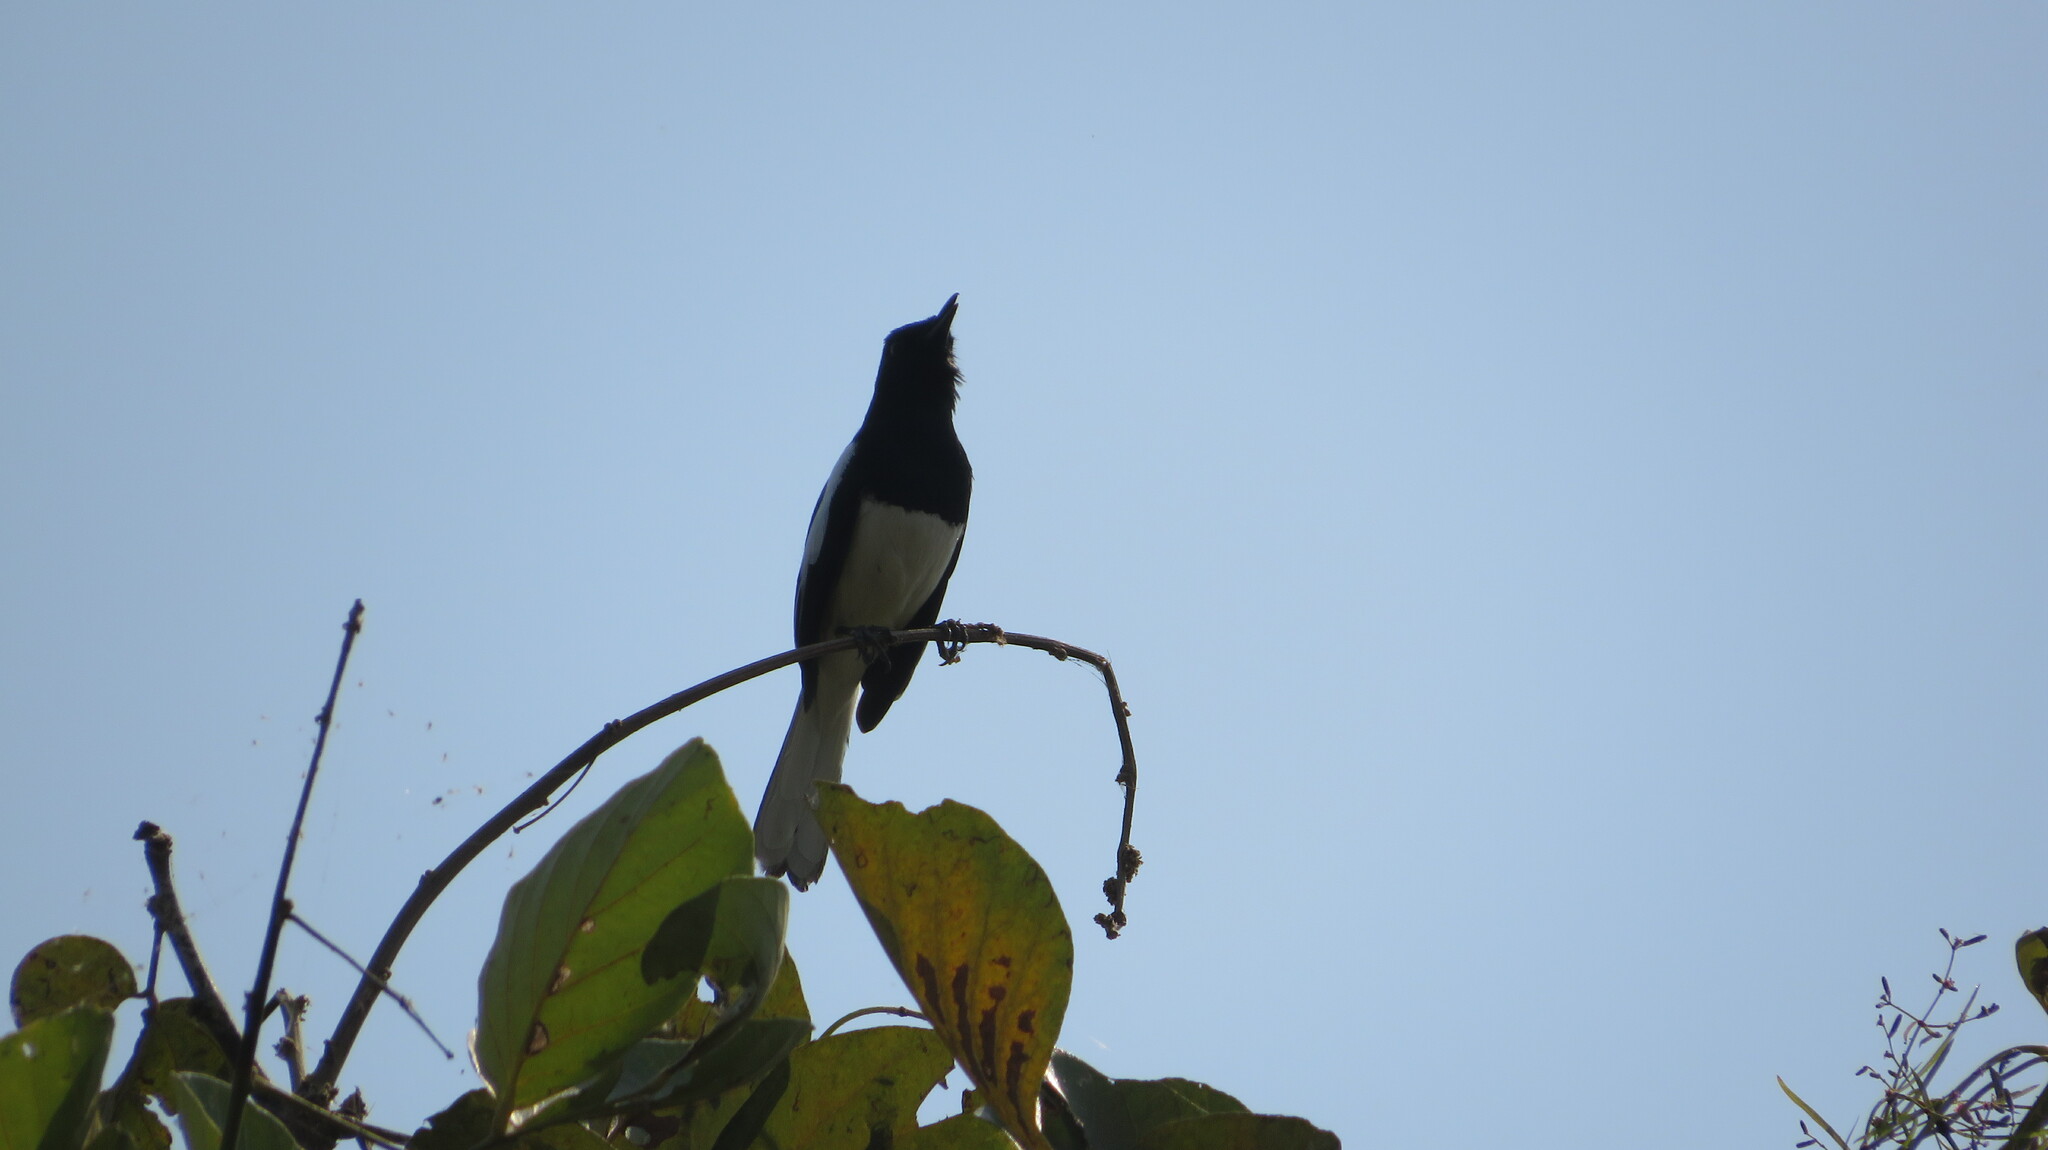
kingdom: Animalia
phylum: Chordata
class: Aves
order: Passeriformes
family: Muscicapidae
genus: Copsychus
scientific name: Copsychus saularis
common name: Oriental magpie-robin
